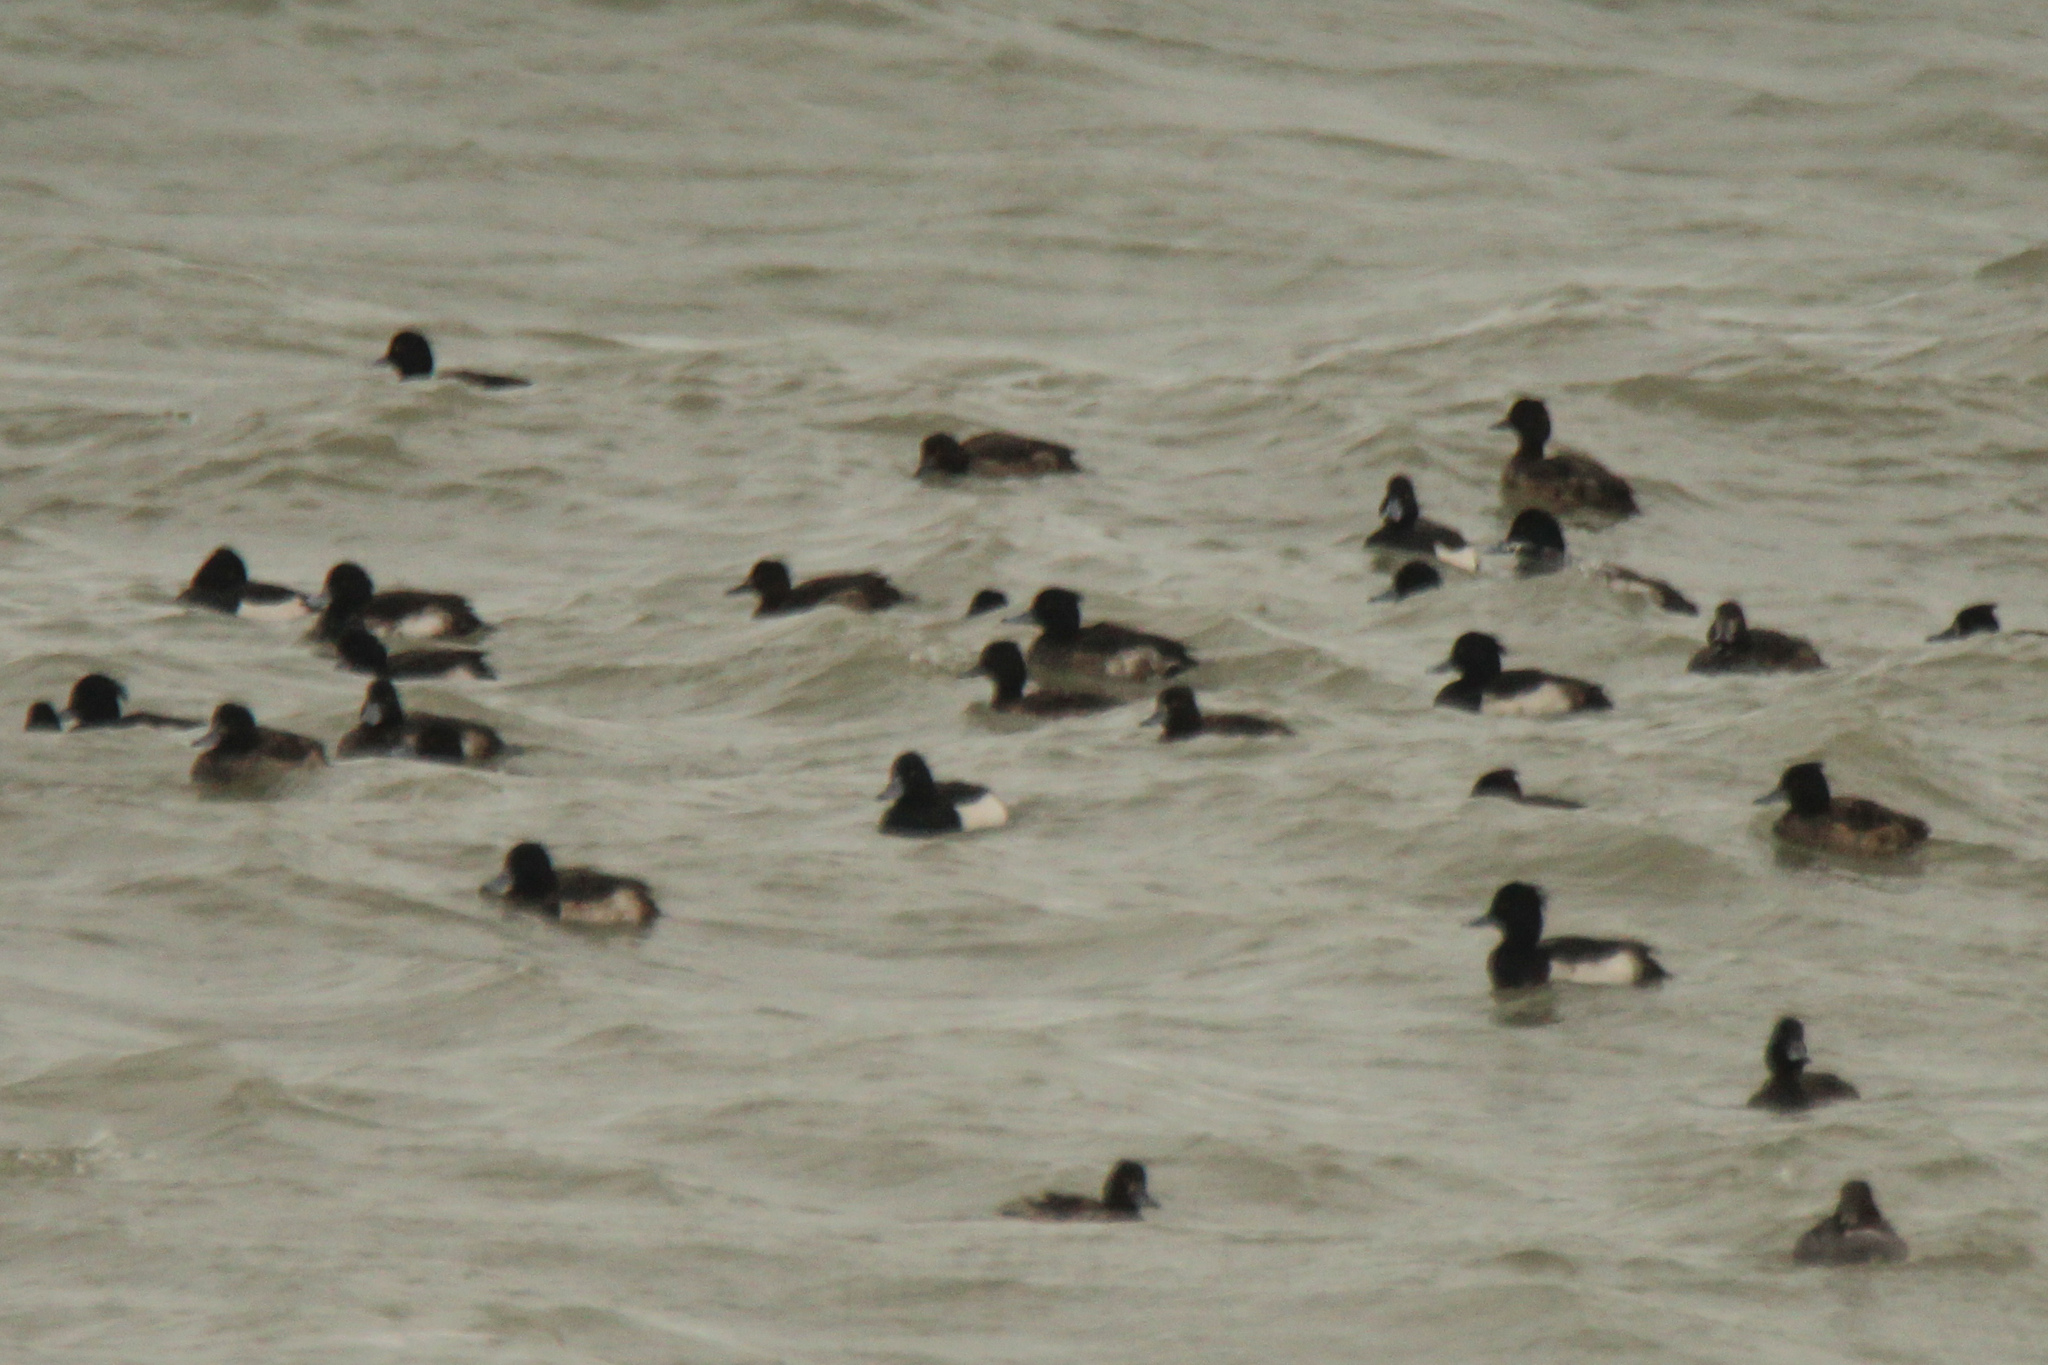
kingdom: Animalia
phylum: Chordata
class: Aves
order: Anseriformes
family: Anatidae
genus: Aythya
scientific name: Aythya fuligula
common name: Tufted duck
